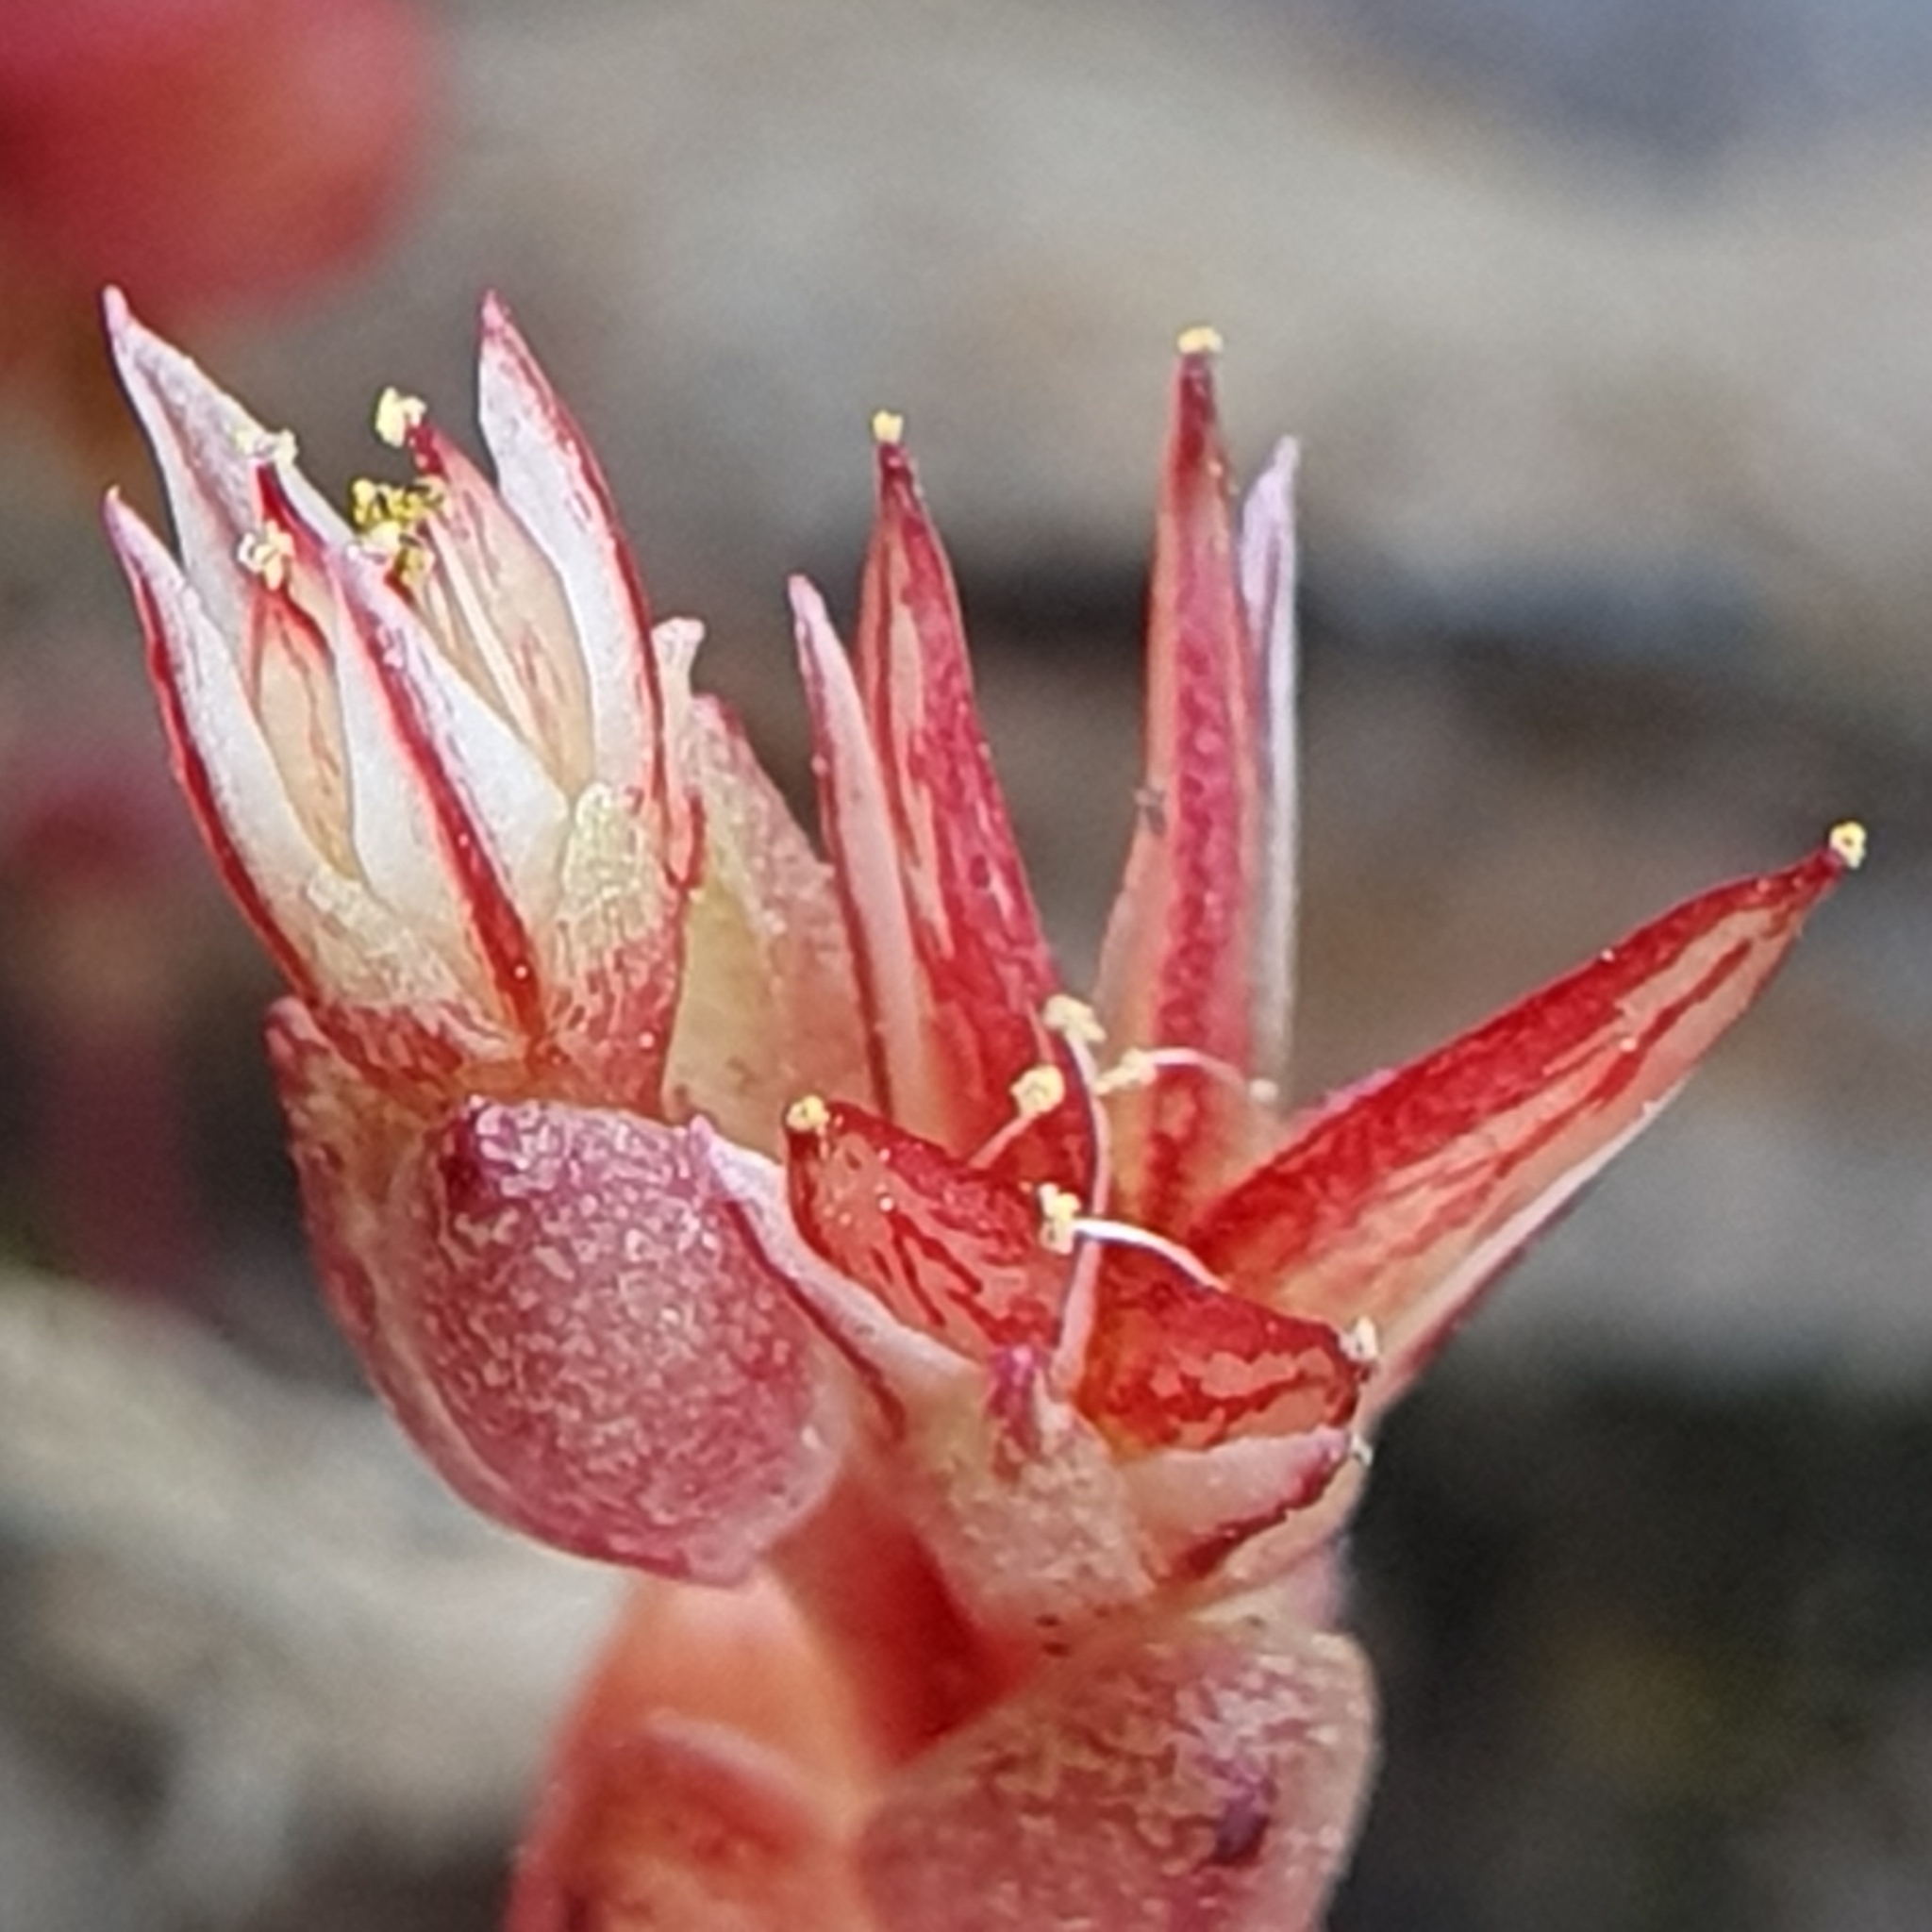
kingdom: Plantae
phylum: Tracheophyta
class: Magnoliopsida
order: Saxifragales
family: Crassulaceae
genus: Sedum
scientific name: Sedum cespitosum
